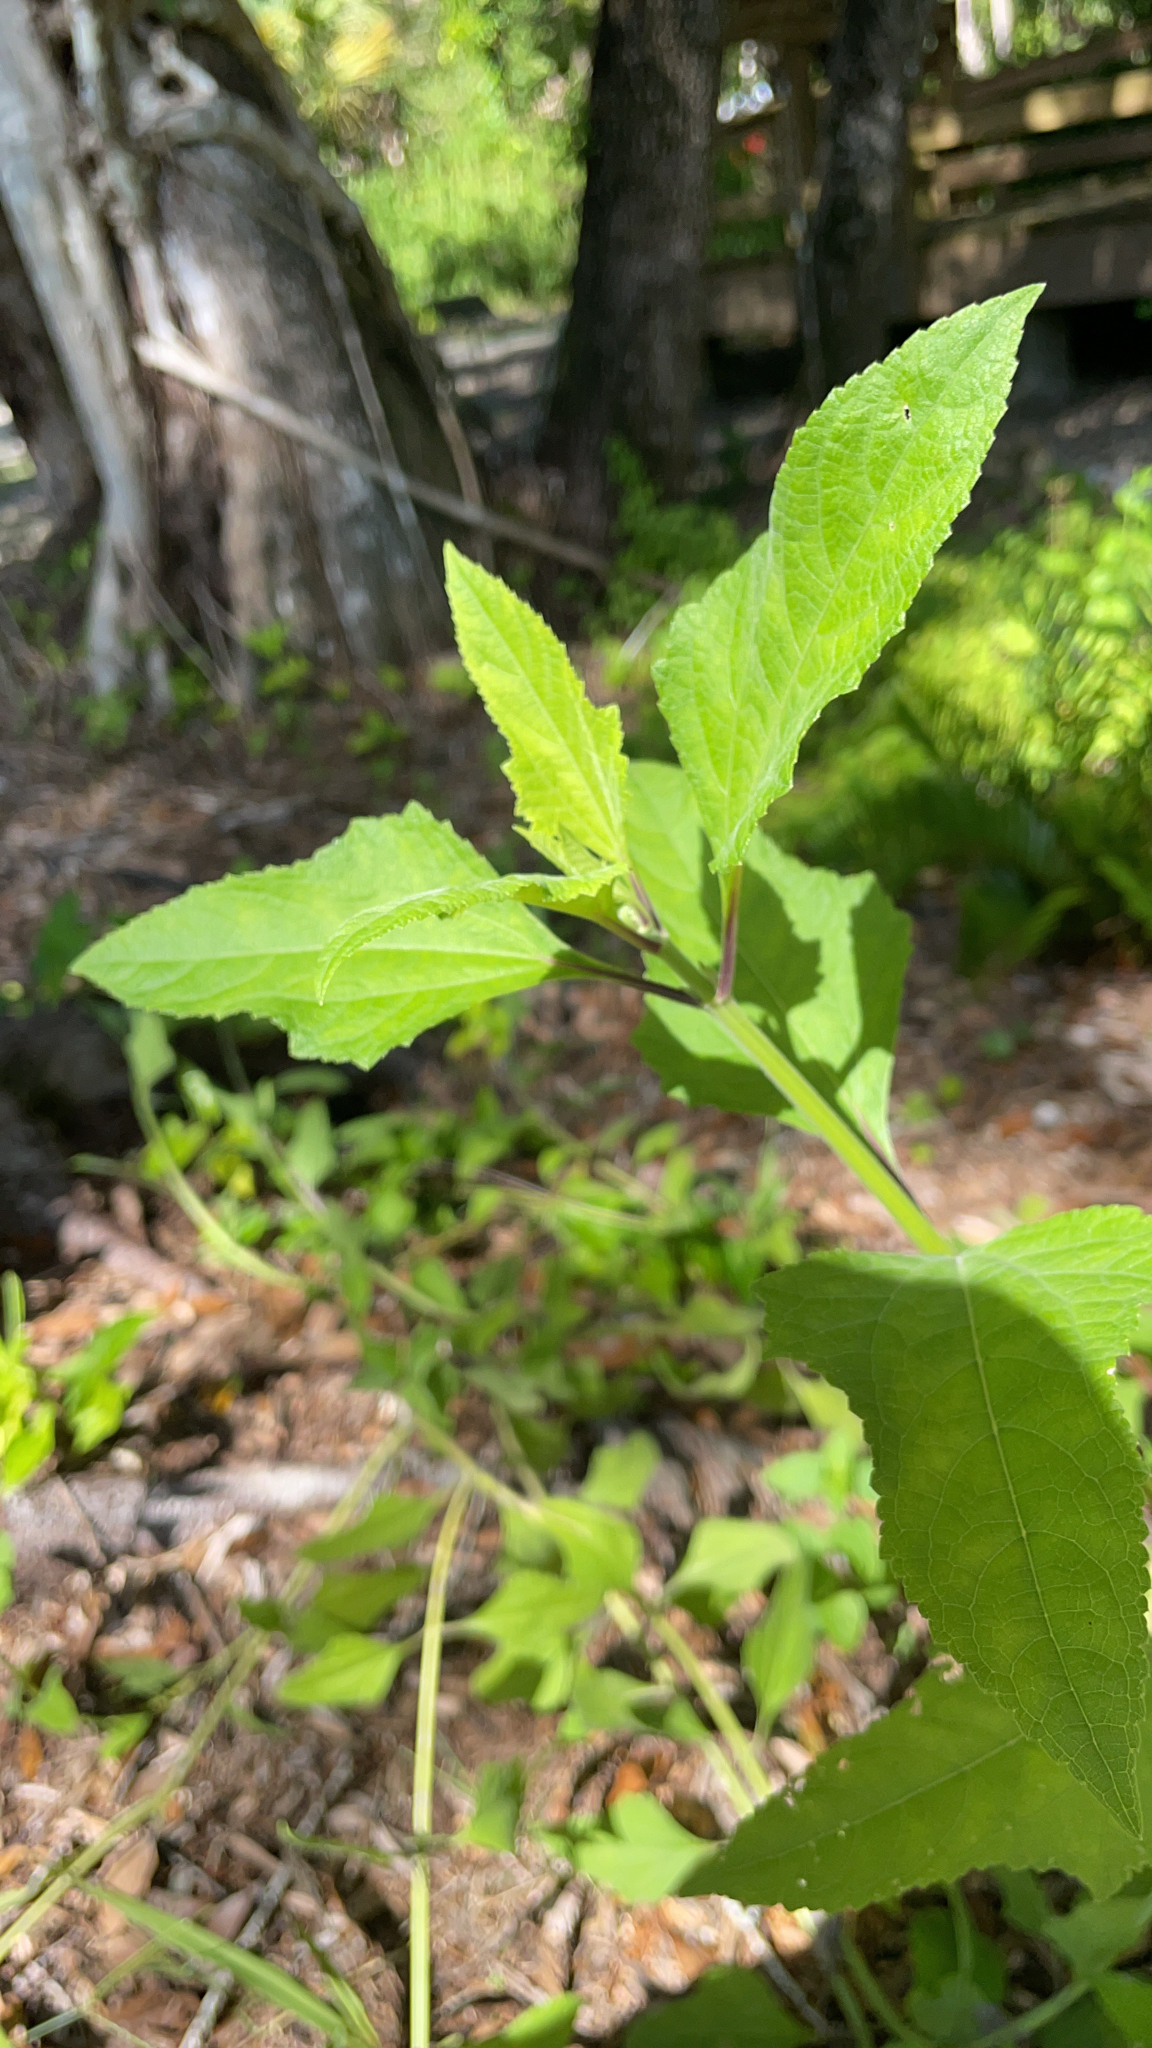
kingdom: Plantae
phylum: Tracheophyta
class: Magnoliopsida
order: Asterales
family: Asteraceae
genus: Melanthera
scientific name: Melanthera nivea
